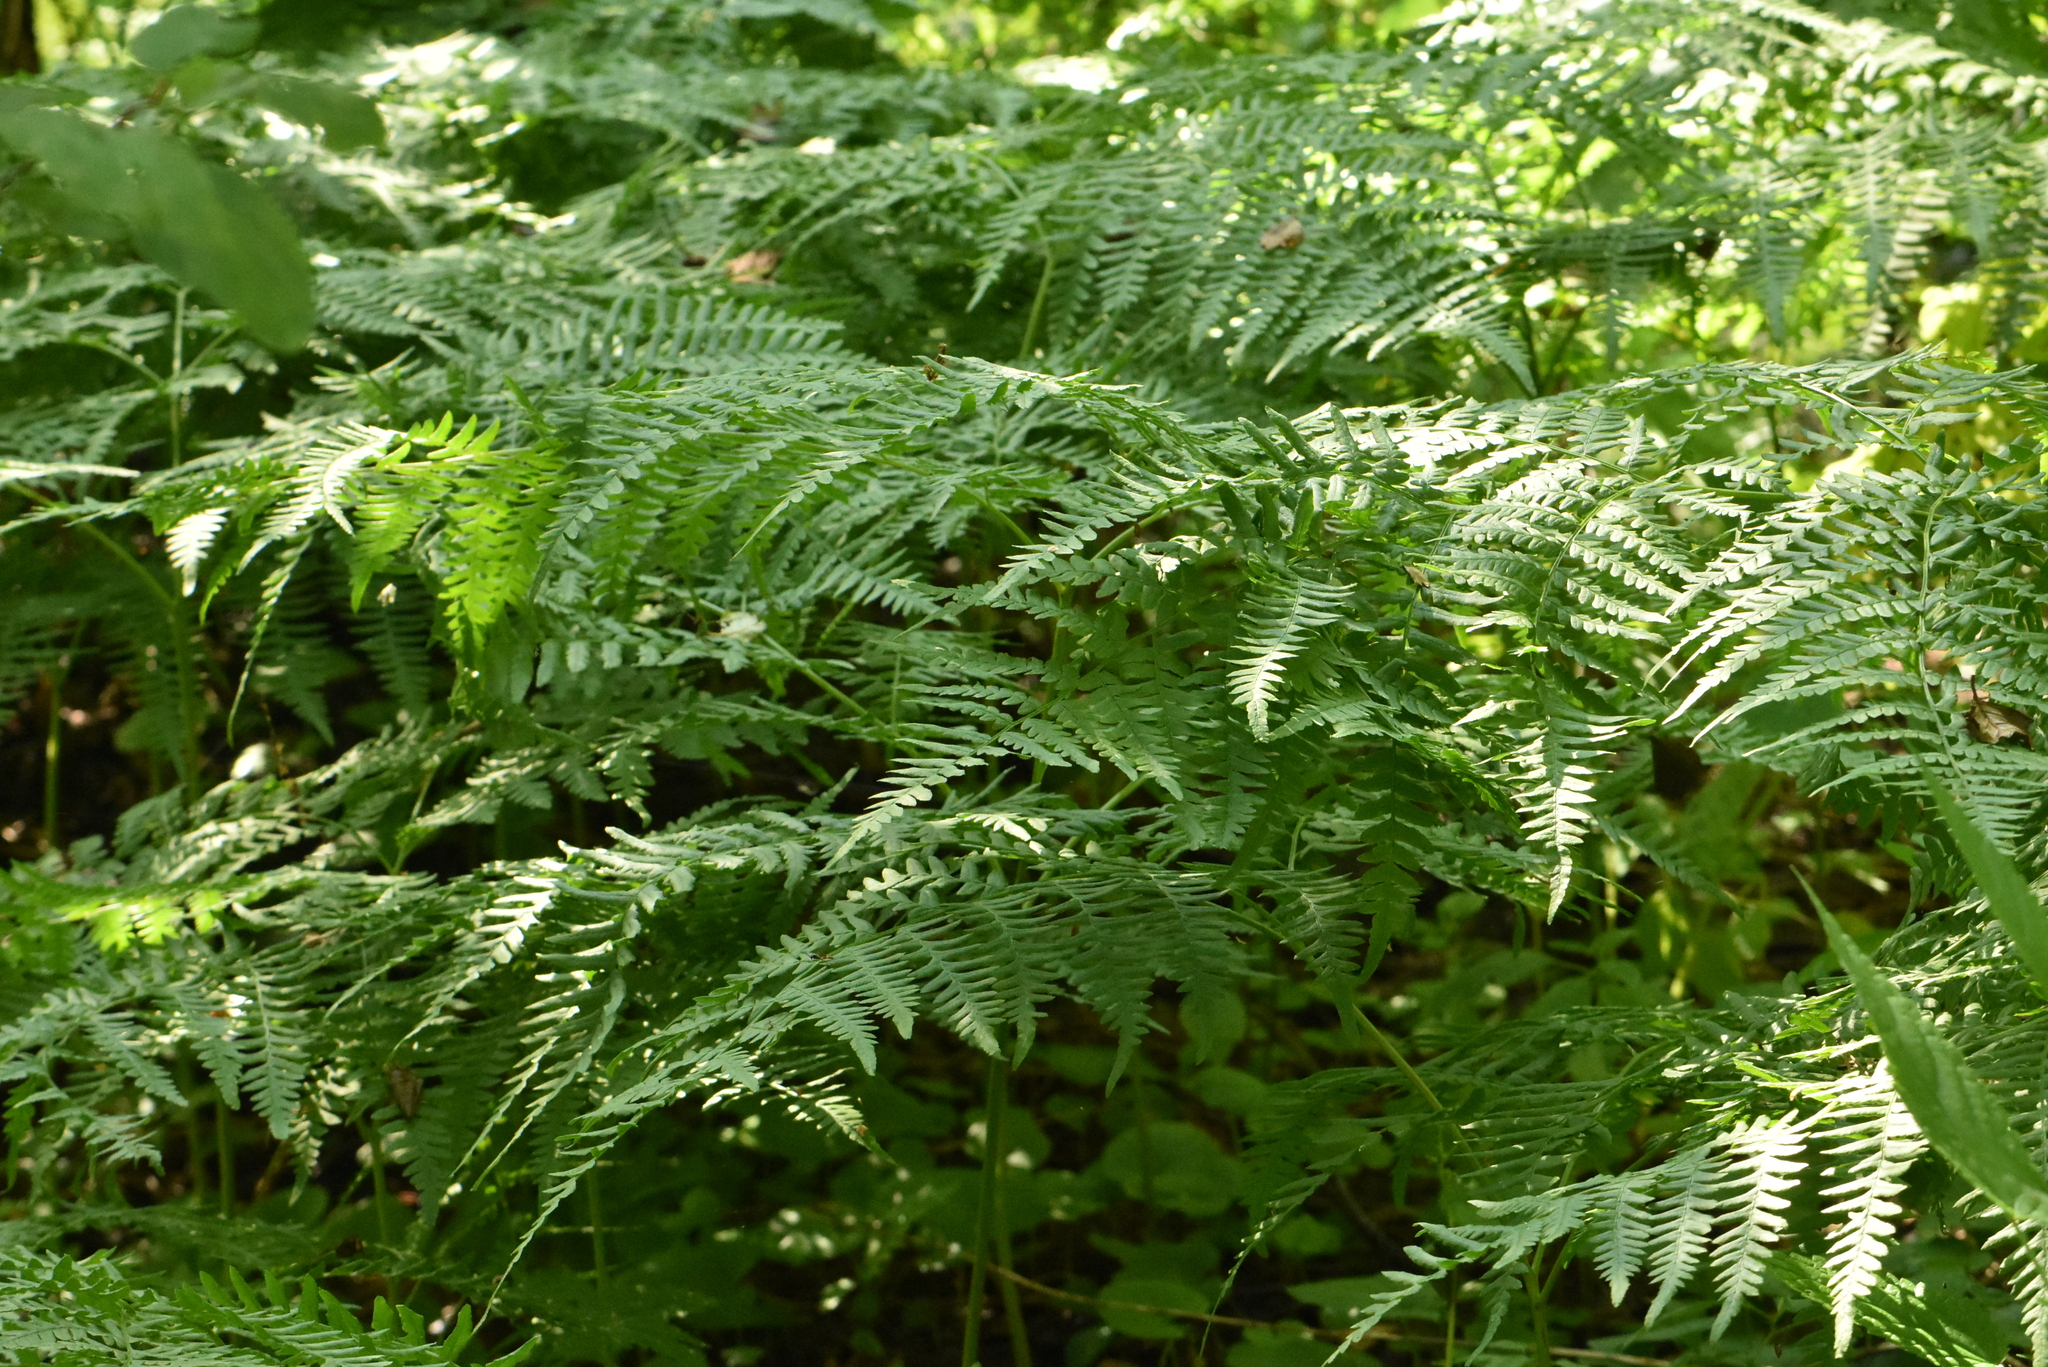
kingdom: Plantae
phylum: Tracheophyta
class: Polypodiopsida
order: Polypodiales
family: Dennstaedtiaceae
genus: Pteridium
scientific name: Pteridium aquilinum
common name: Bracken
